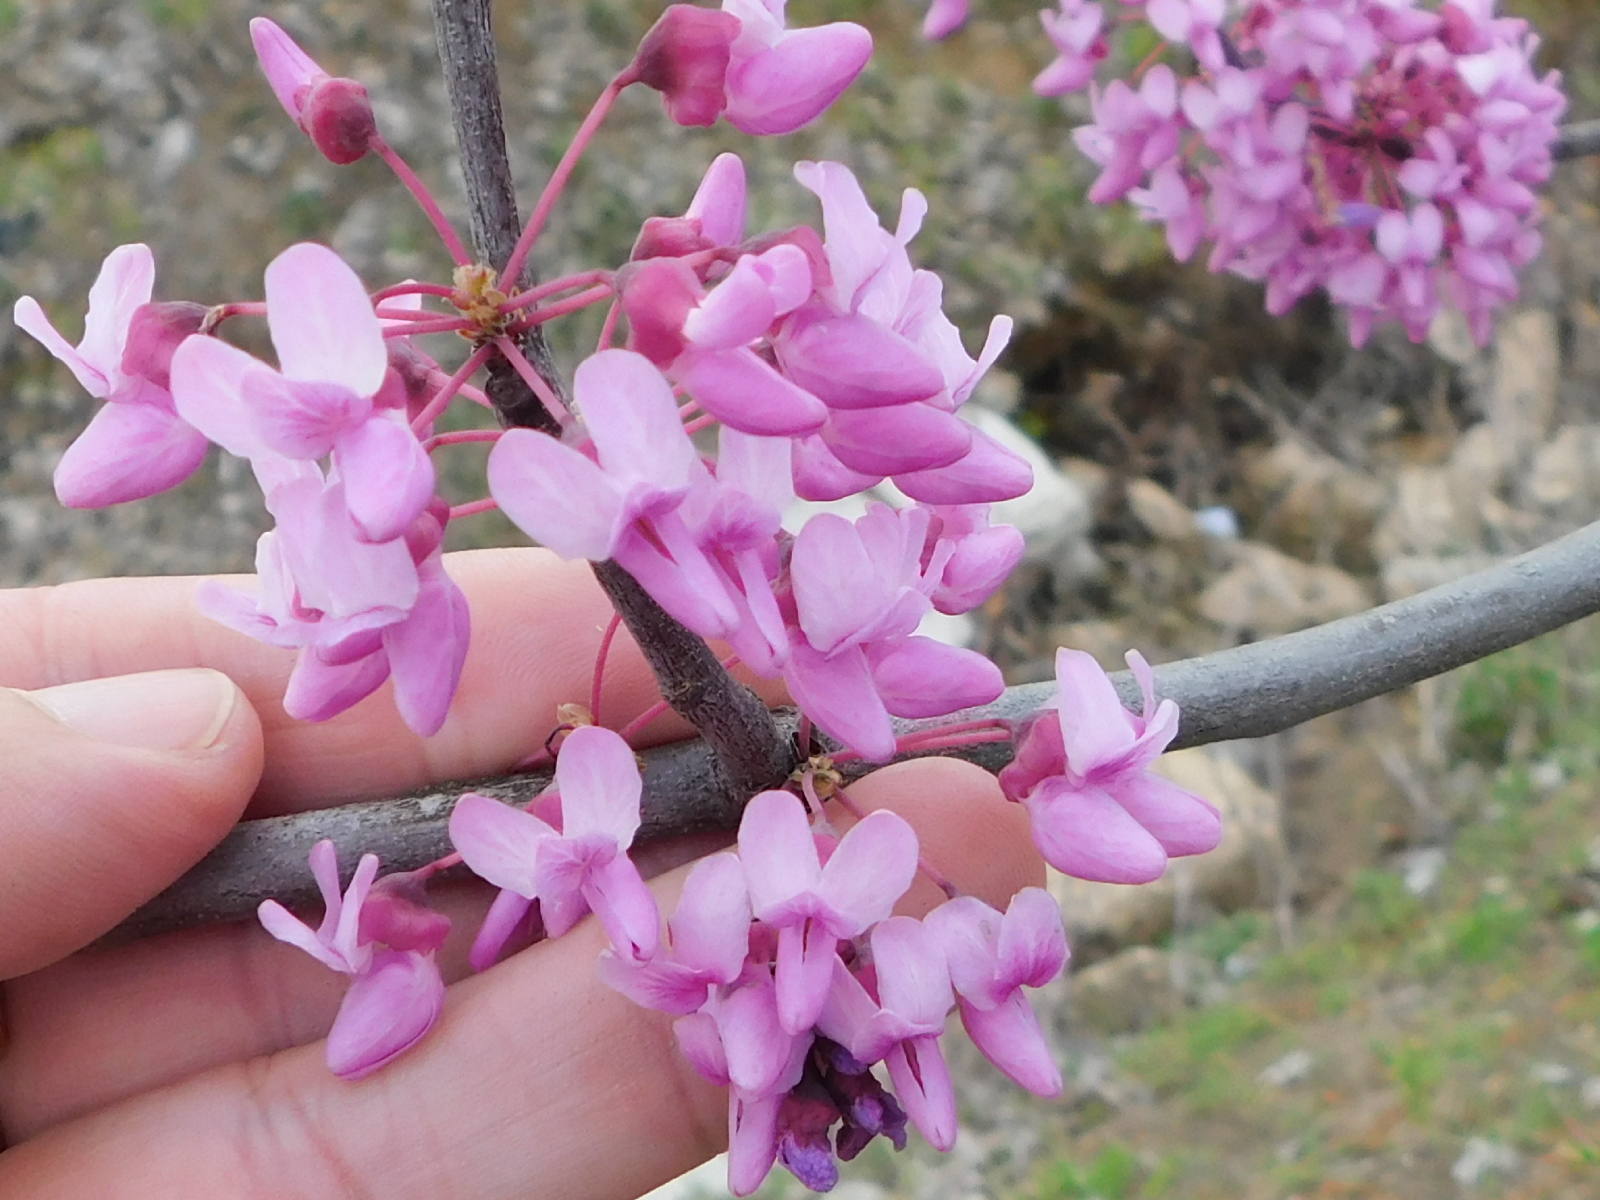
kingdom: Plantae
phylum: Tracheophyta
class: Magnoliopsida
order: Fabales
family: Fabaceae
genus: Cercis
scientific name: Cercis canadensis
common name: Eastern redbud
